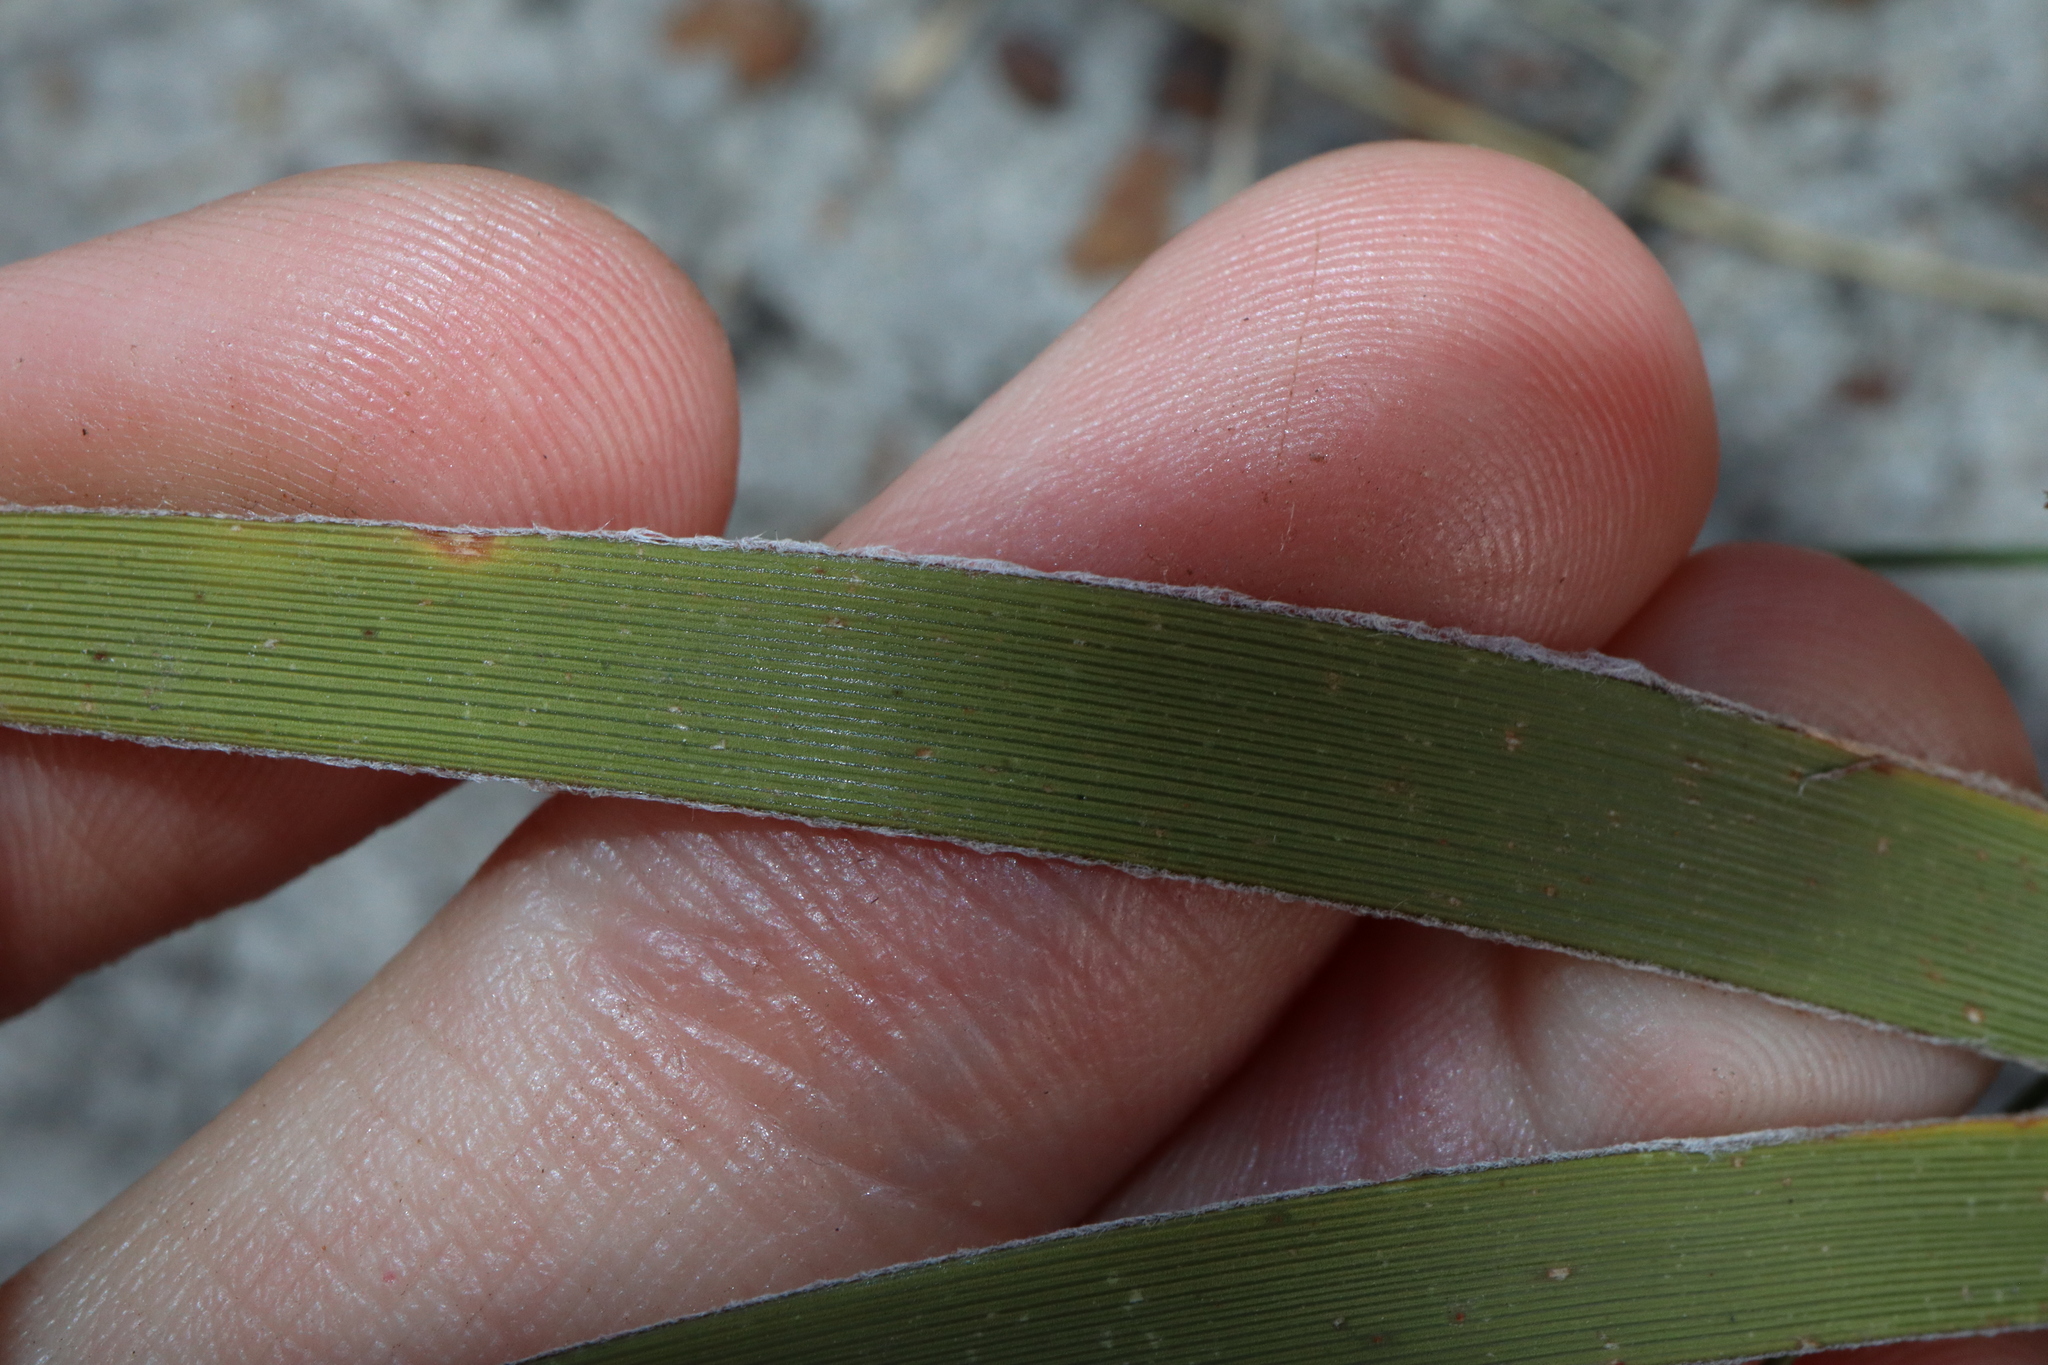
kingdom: Plantae
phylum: Tracheophyta
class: Liliopsida
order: Asparagales
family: Iridaceae
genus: Patersonia
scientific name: Patersonia lanata
